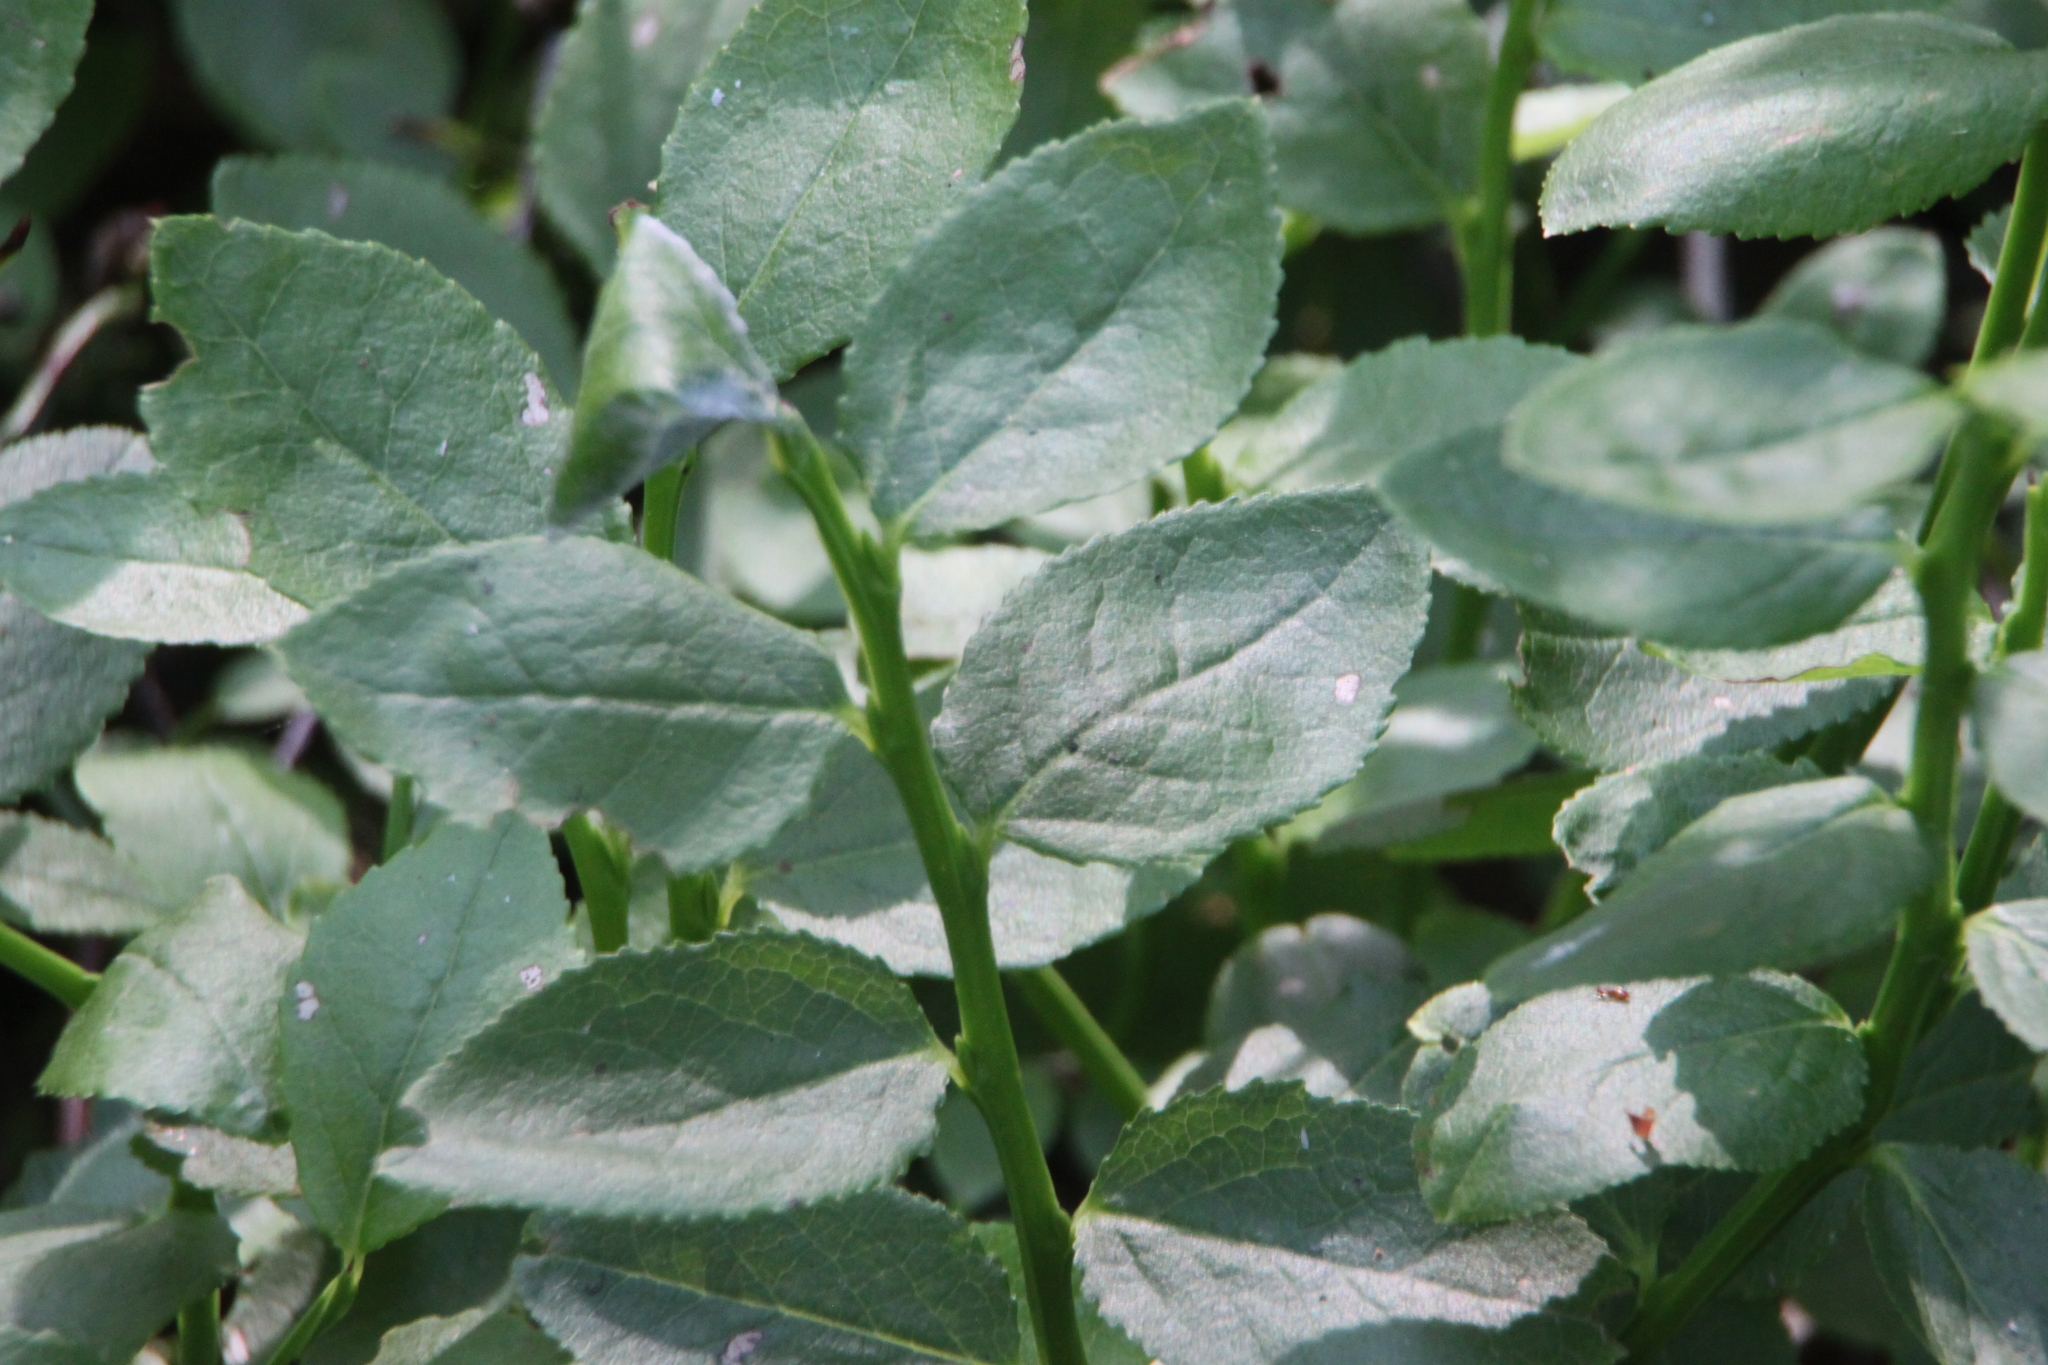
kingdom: Plantae
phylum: Tracheophyta
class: Magnoliopsida
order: Ericales
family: Ericaceae
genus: Vaccinium
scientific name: Vaccinium myrtillus
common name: Bilberry
